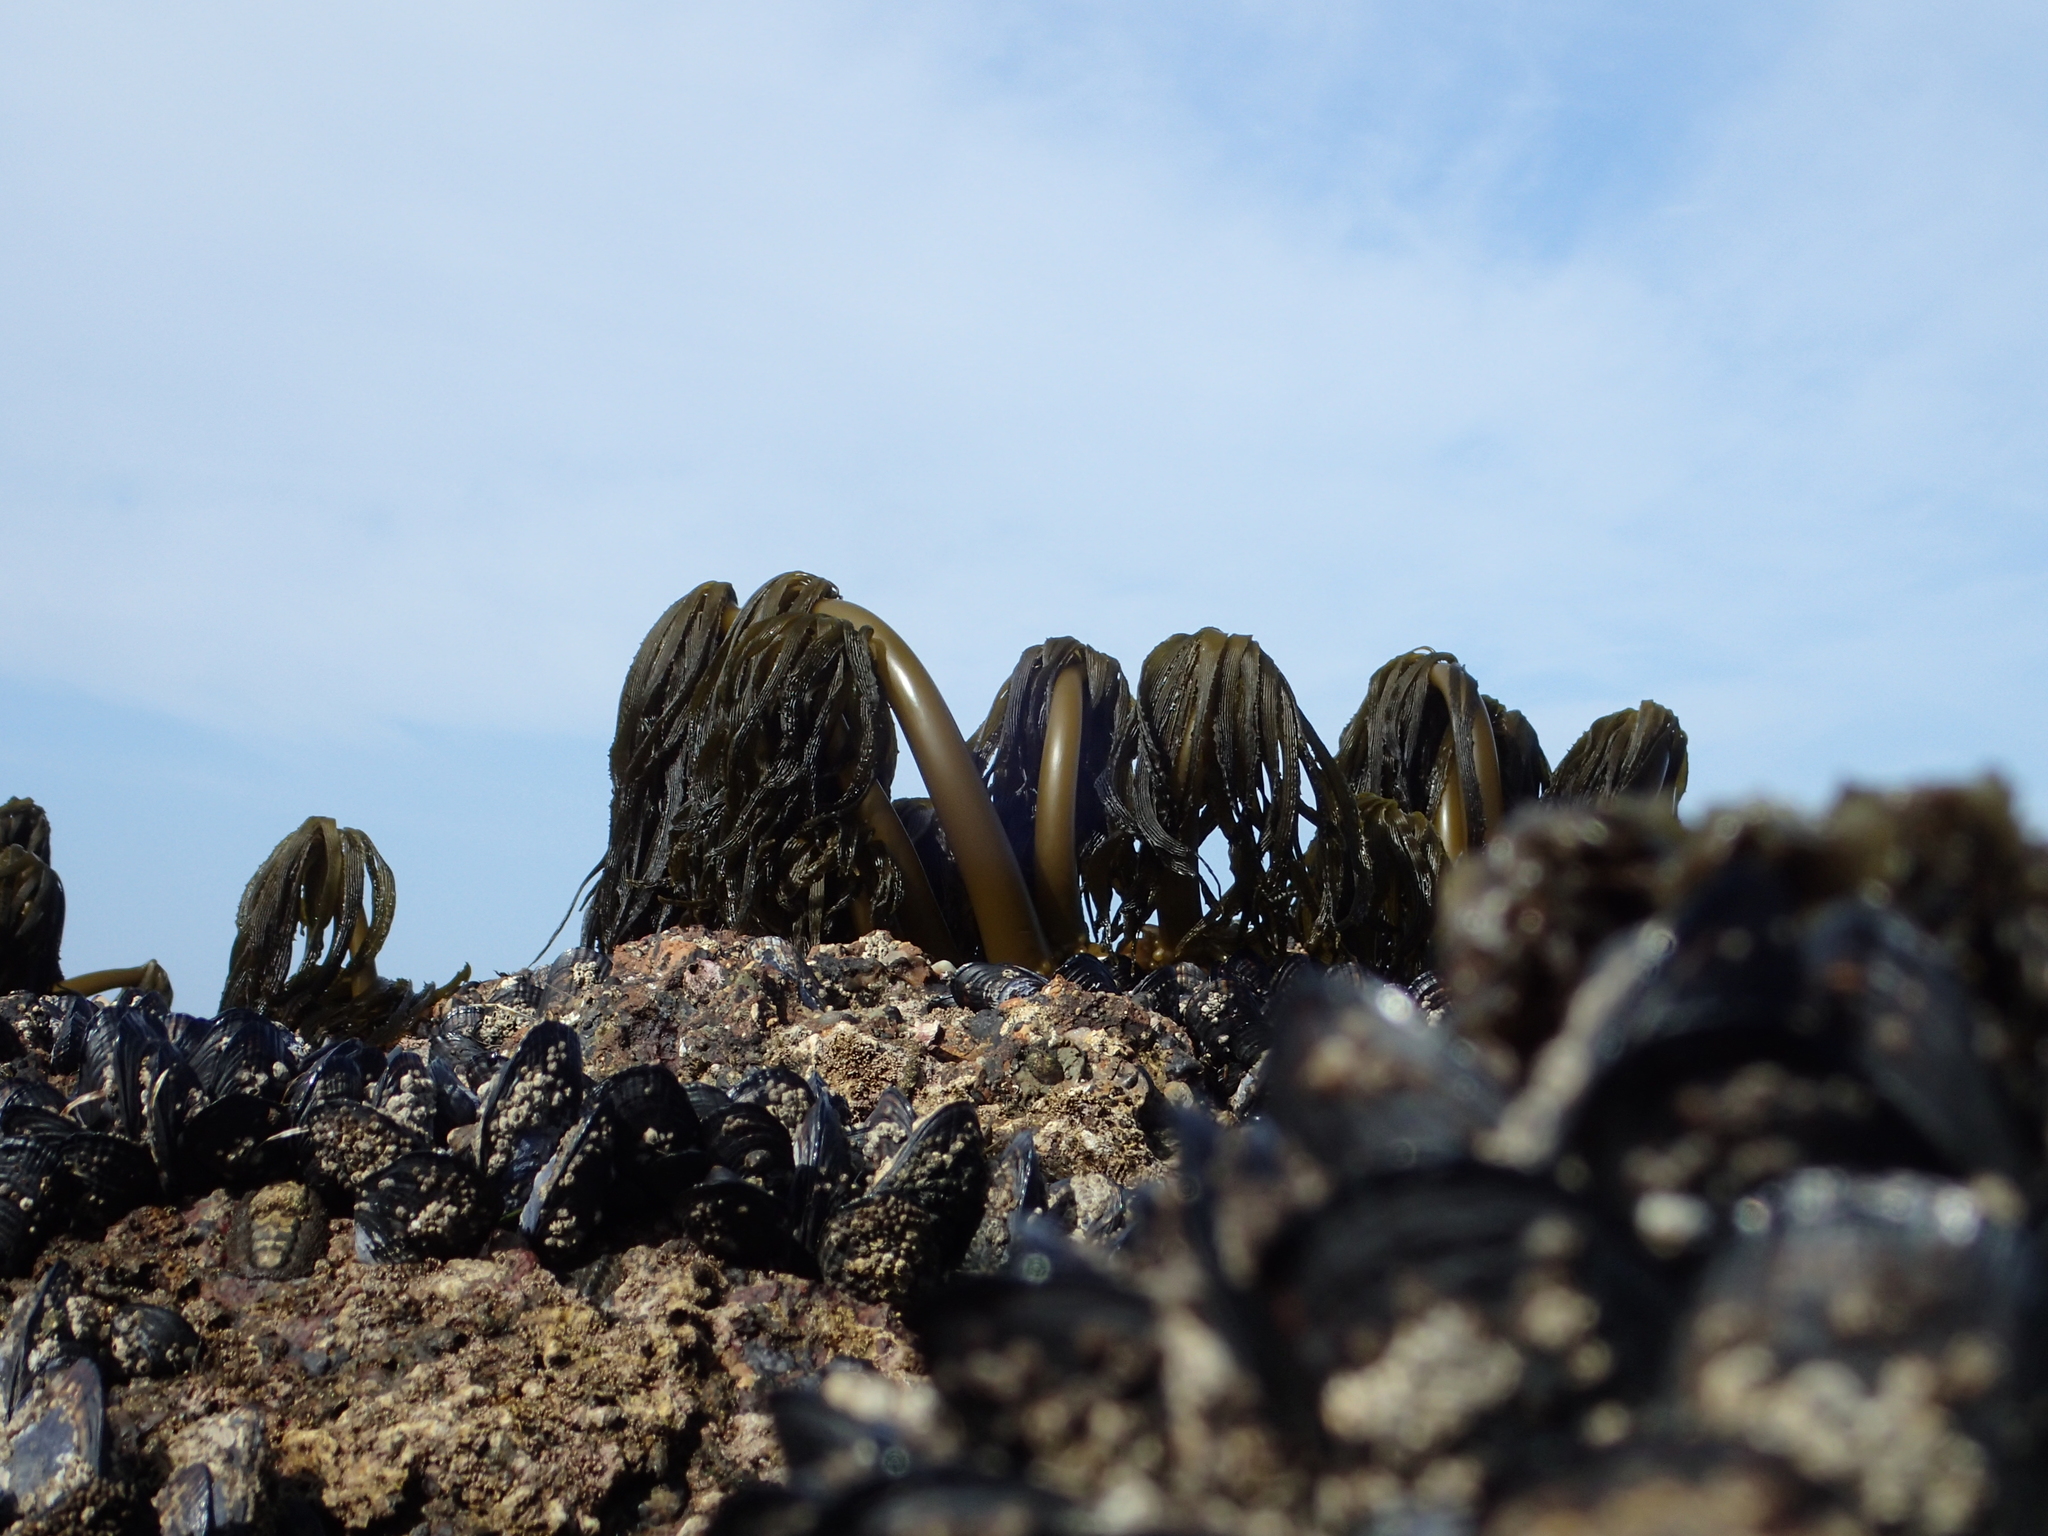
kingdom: Chromista
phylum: Ochrophyta
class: Phaeophyceae
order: Laminariales
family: Laminariaceae
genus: Postelsia
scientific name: Postelsia palmiformis
